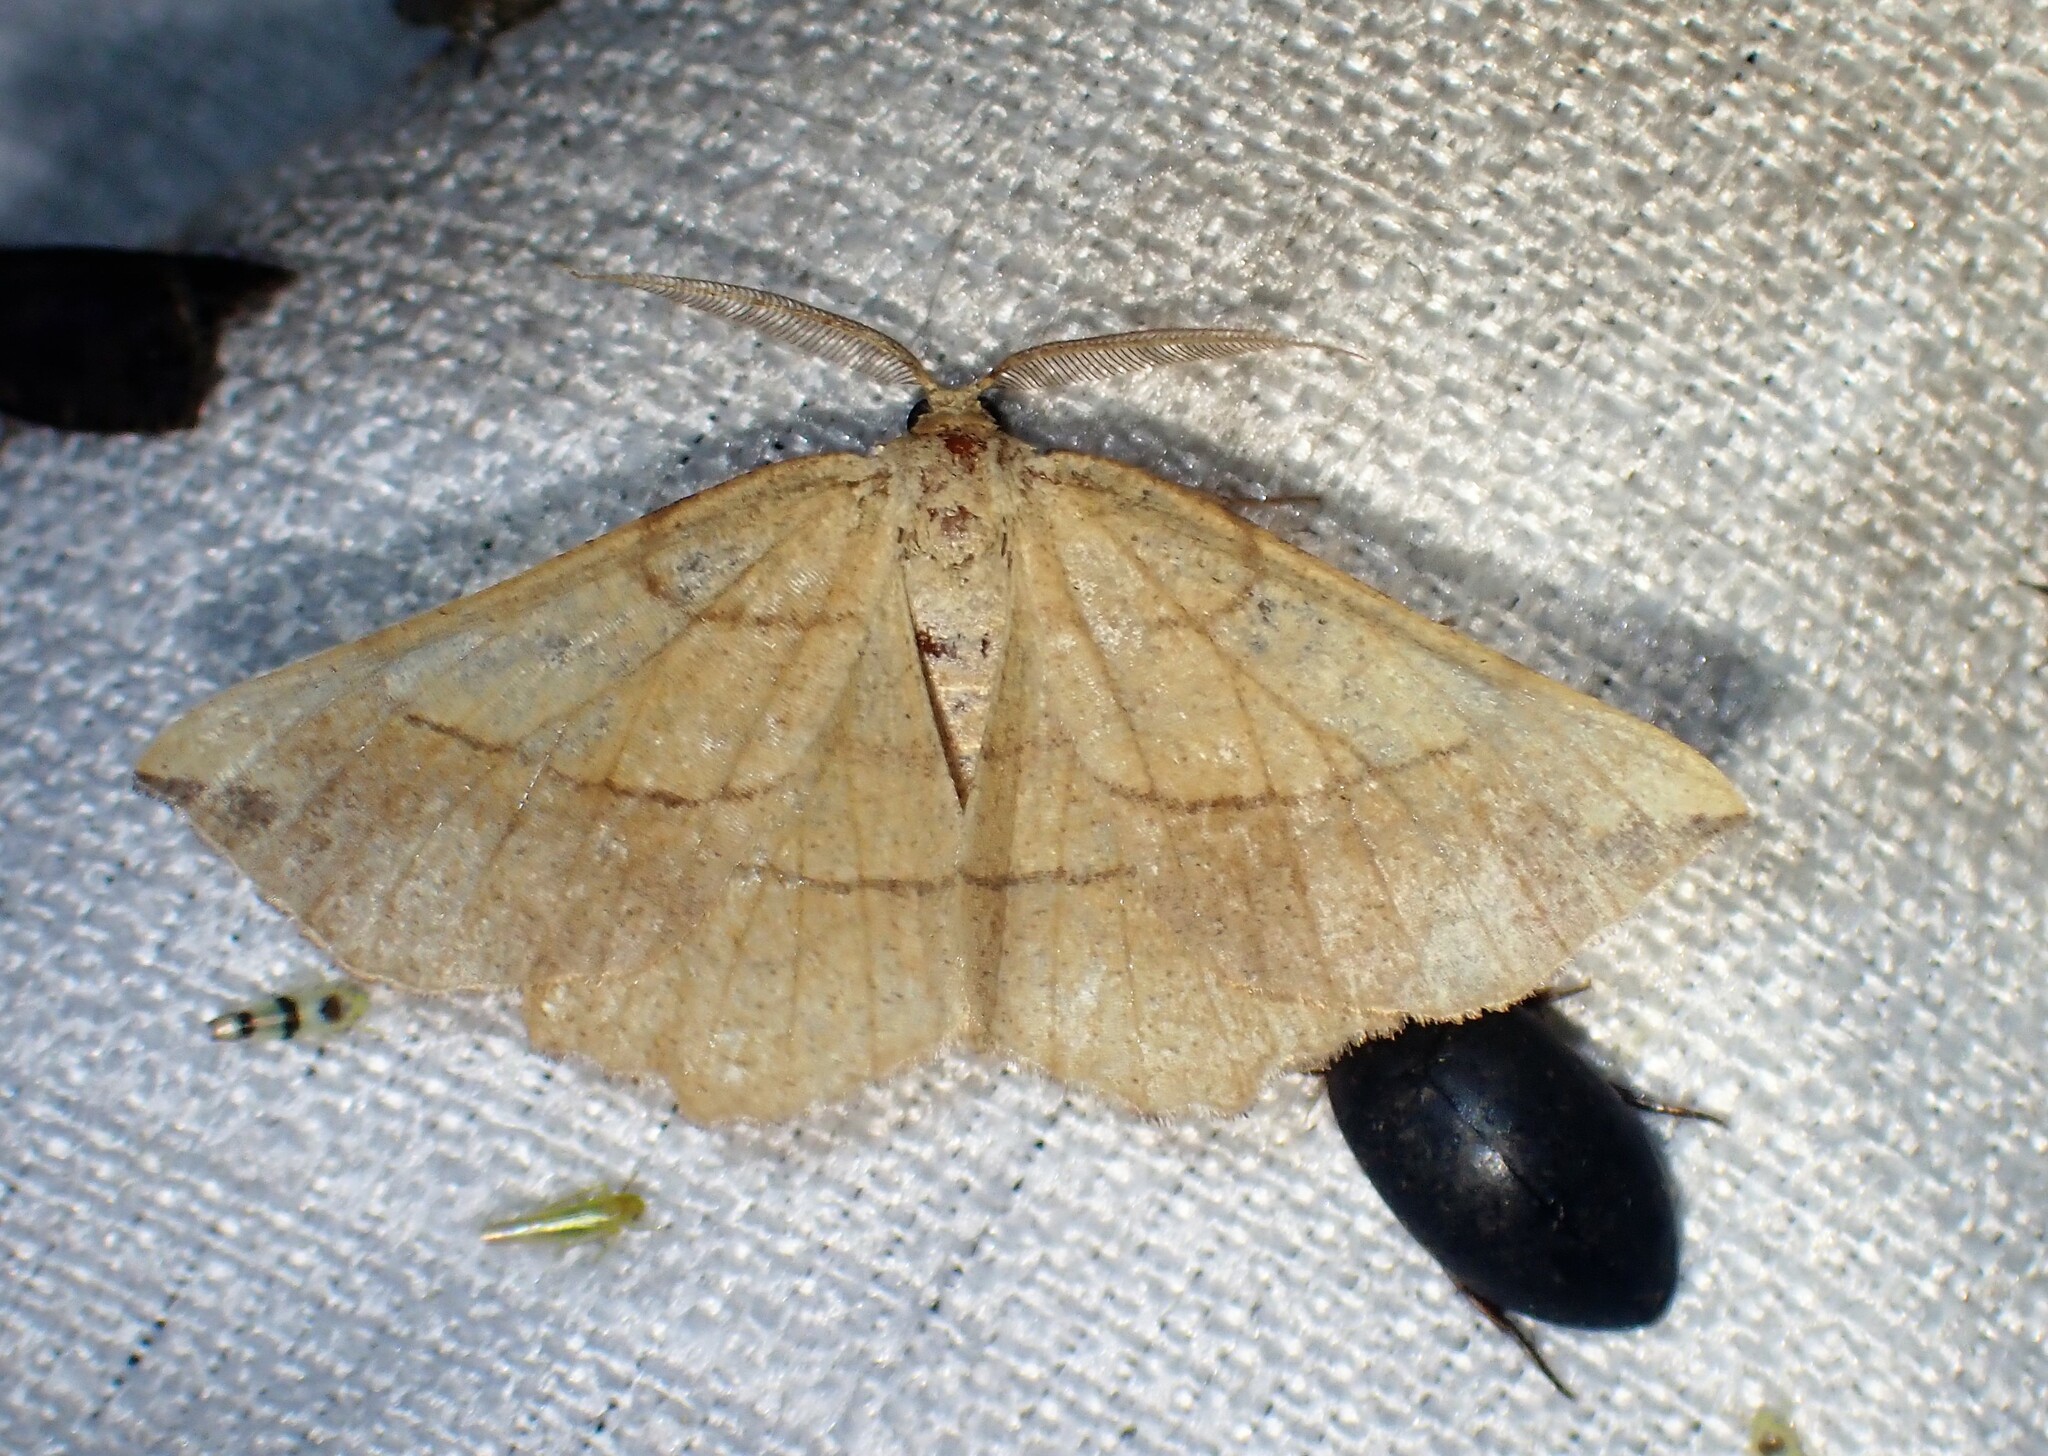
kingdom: Animalia
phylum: Arthropoda
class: Insecta
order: Lepidoptera
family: Geometridae
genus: Euchlaena
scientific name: Euchlaena madusaria
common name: Scrub euchlaena moth
